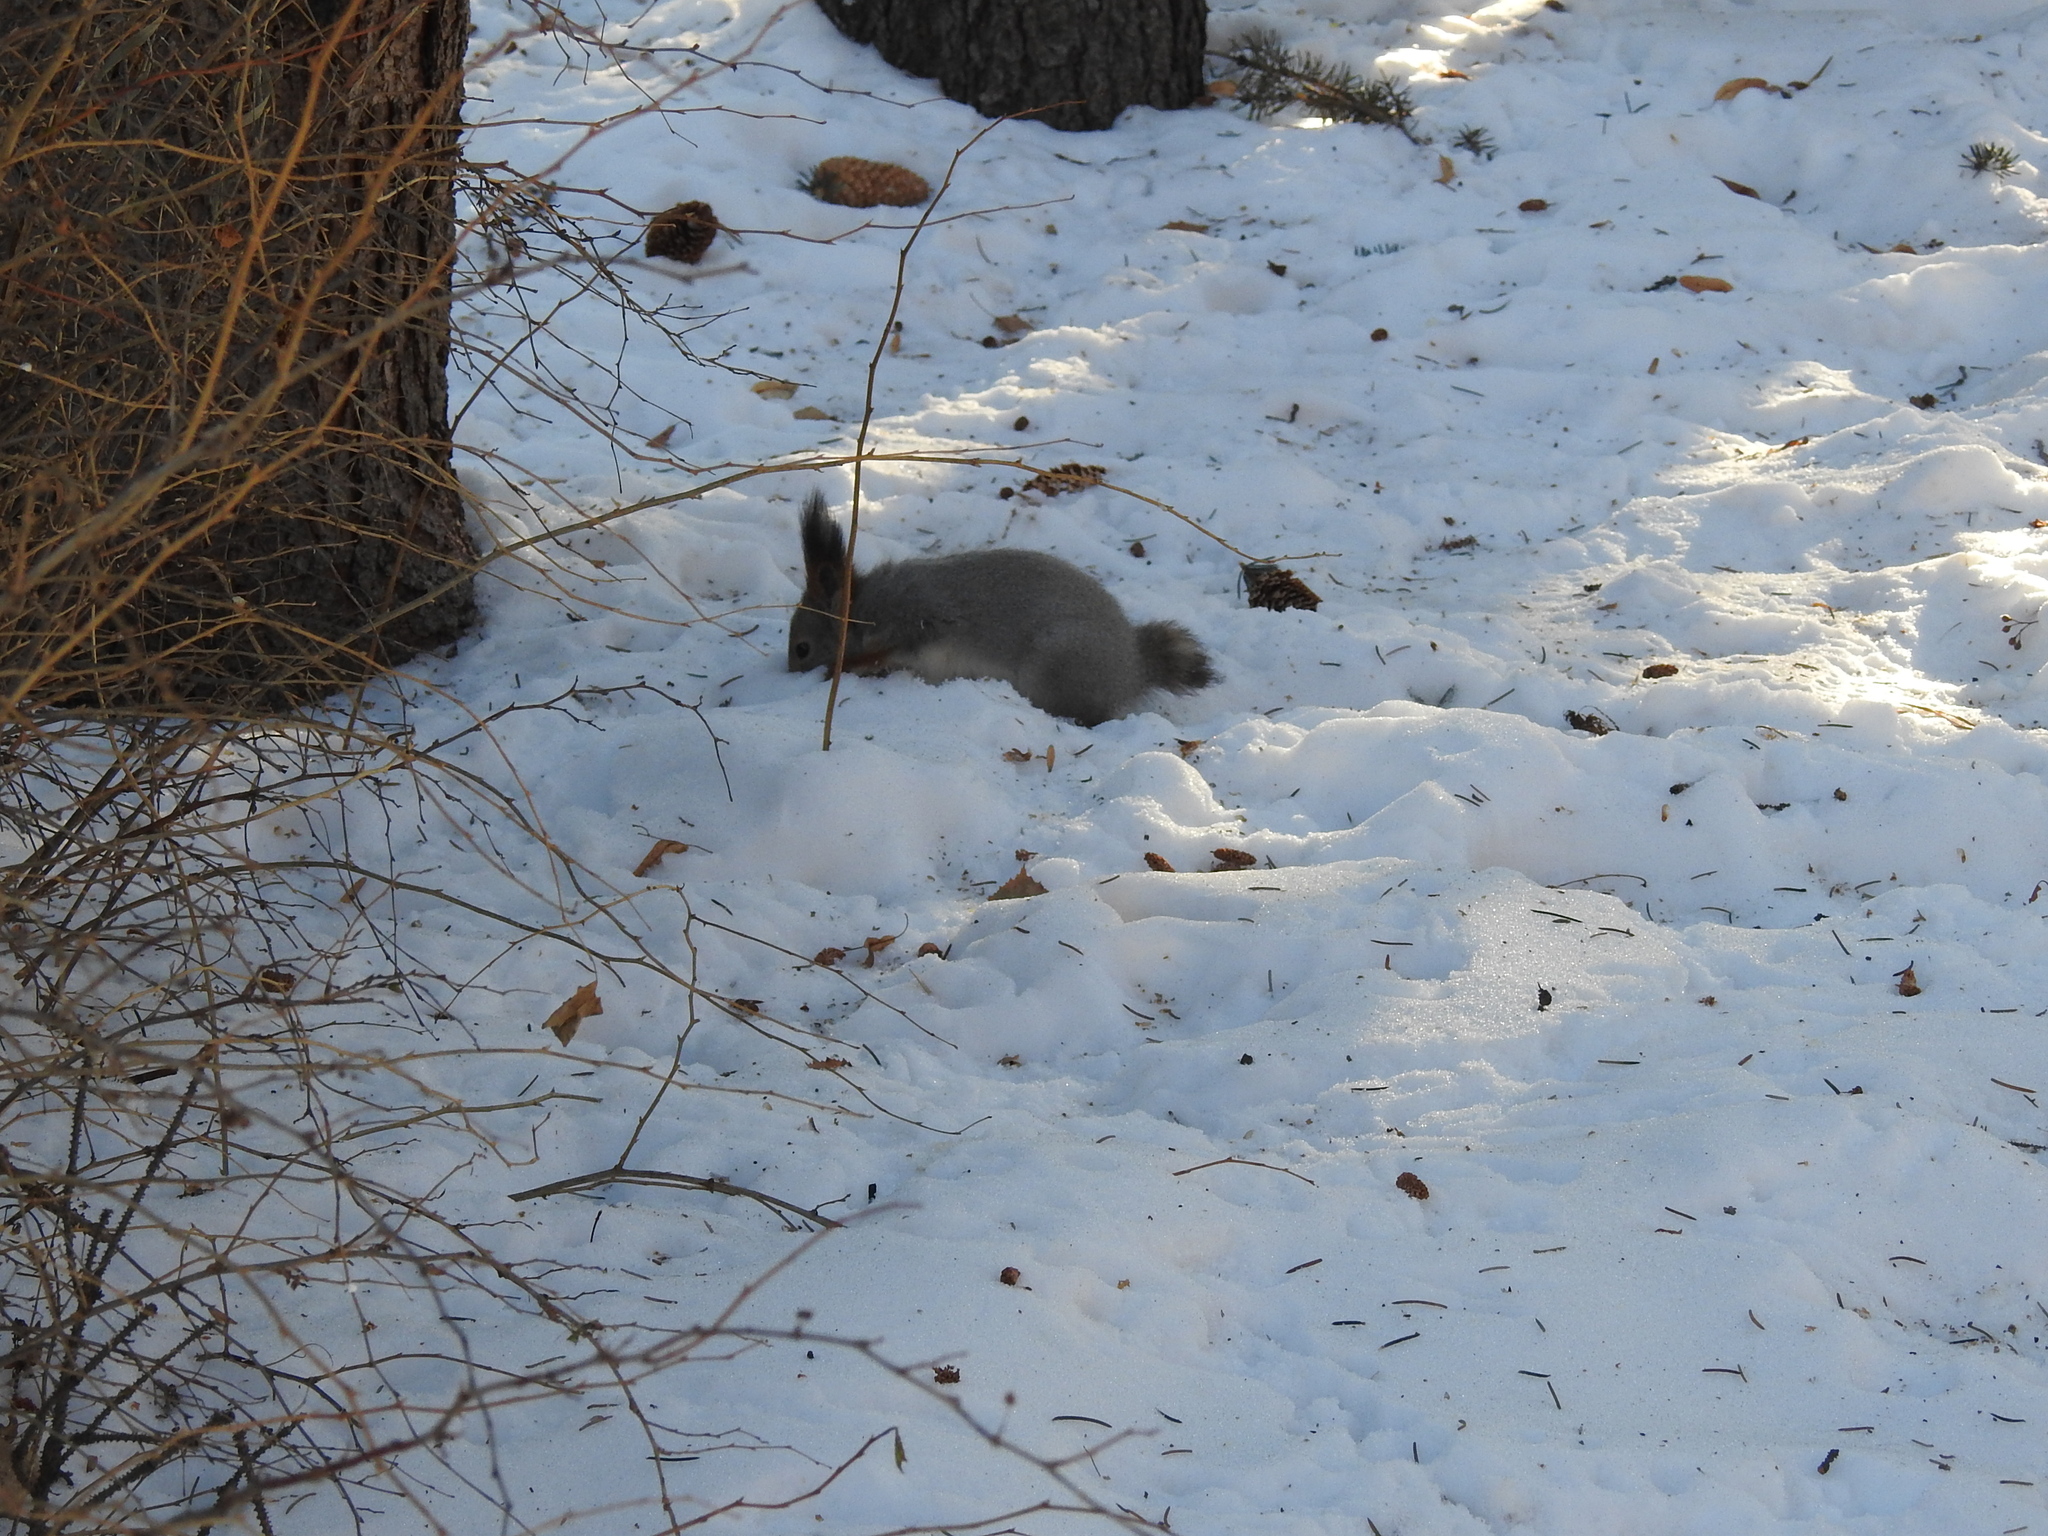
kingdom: Animalia
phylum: Chordata
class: Mammalia
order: Rodentia
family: Sciuridae
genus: Sciurus
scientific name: Sciurus vulgaris
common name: Eurasian red squirrel
